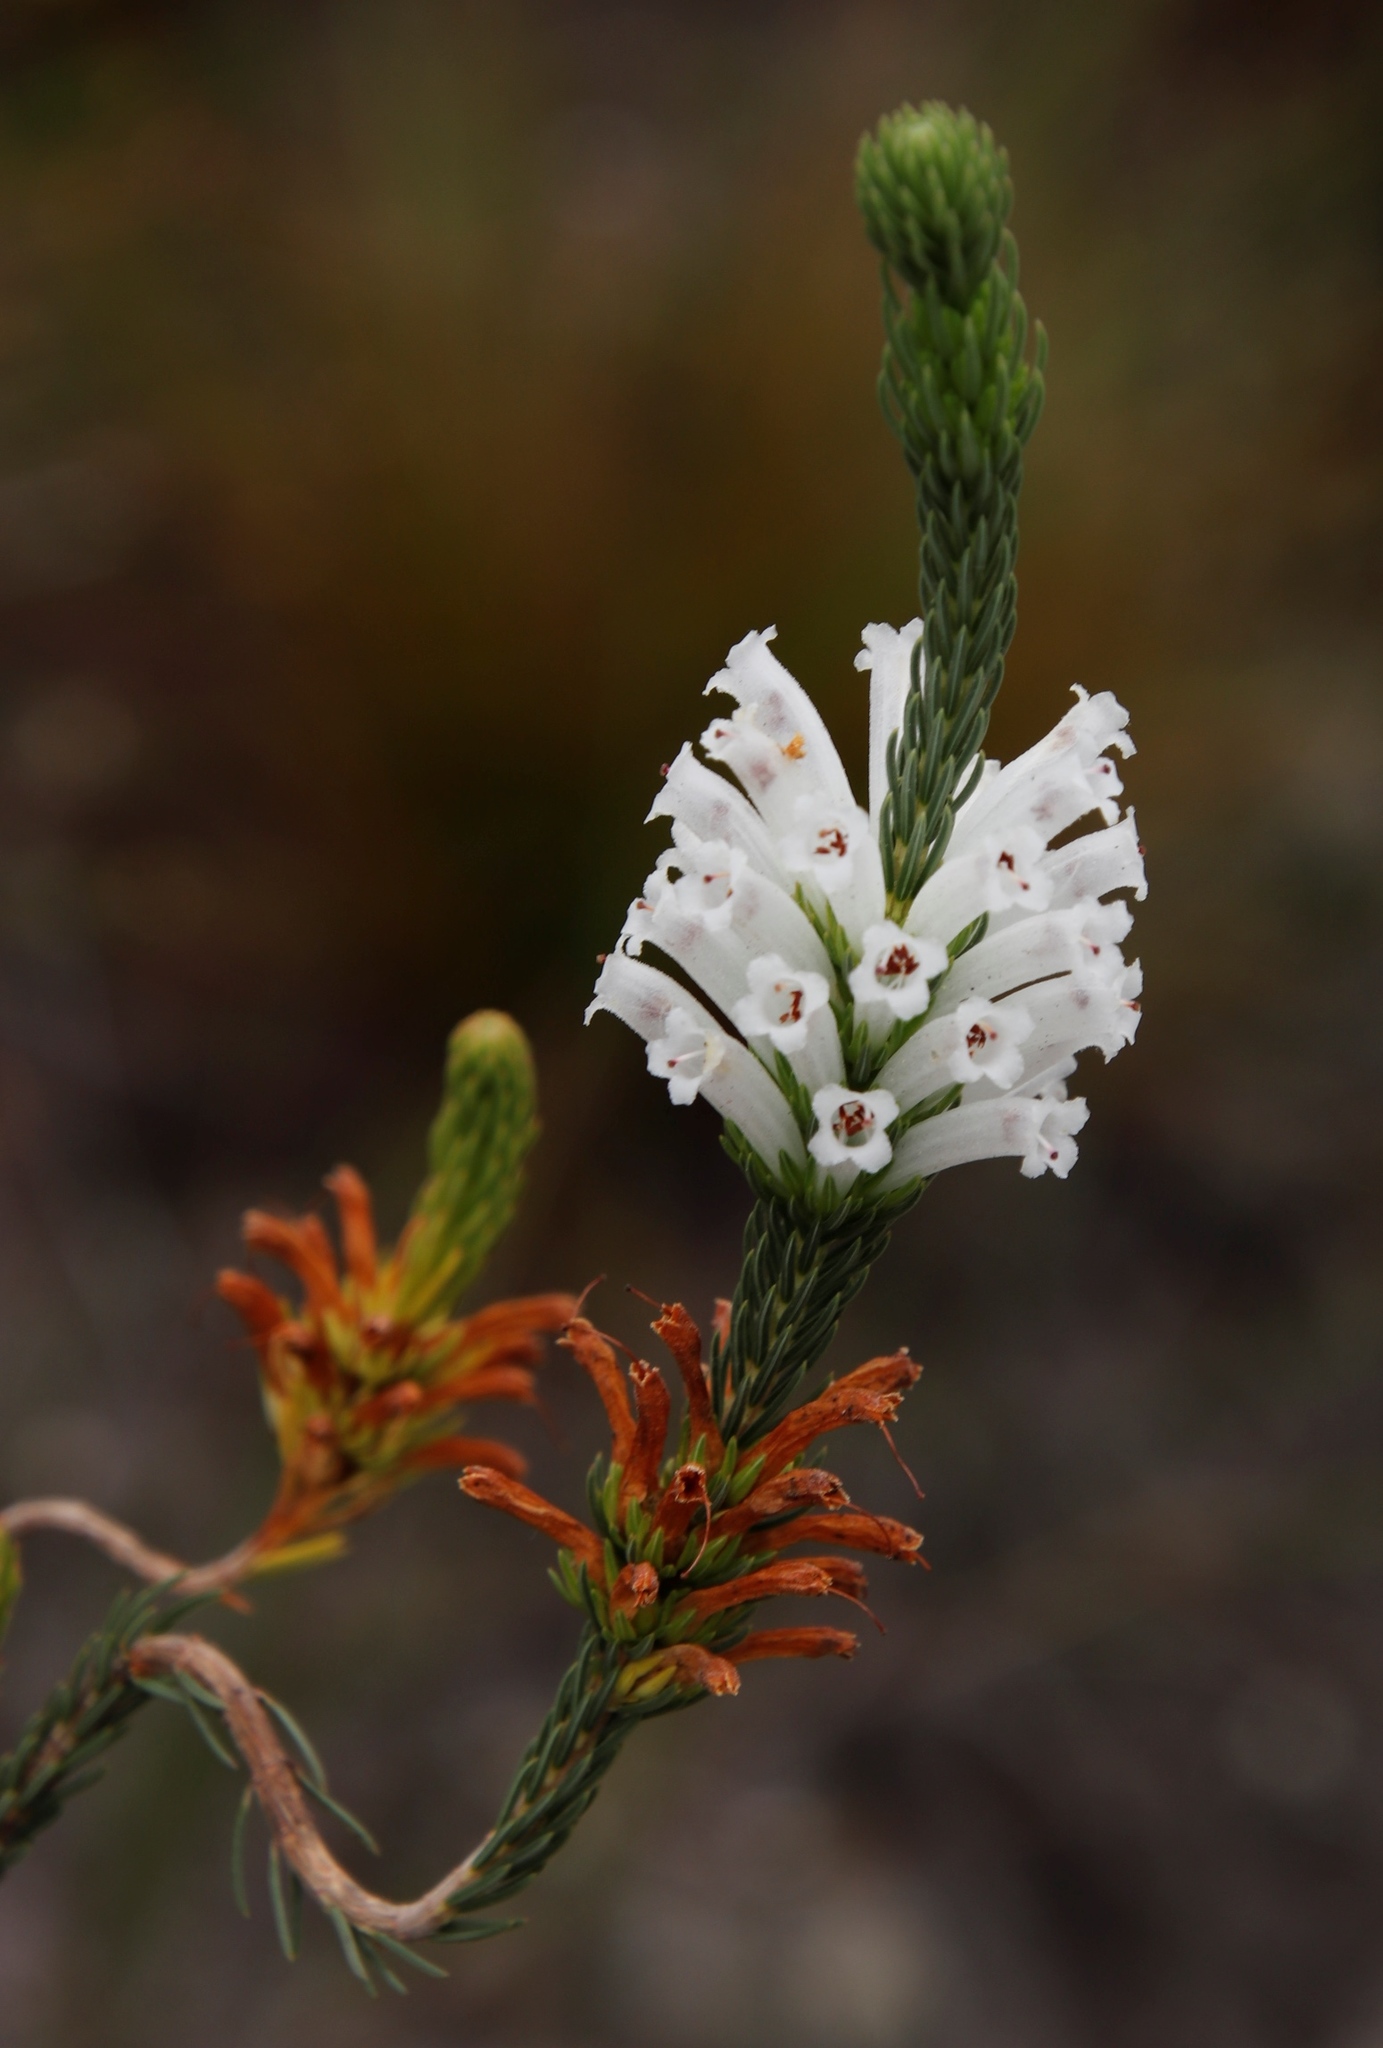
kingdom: Plantae
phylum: Tracheophyta
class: Magnoliopsida
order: Ericales
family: Ericaceae
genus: Erica
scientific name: Erica viscaria
